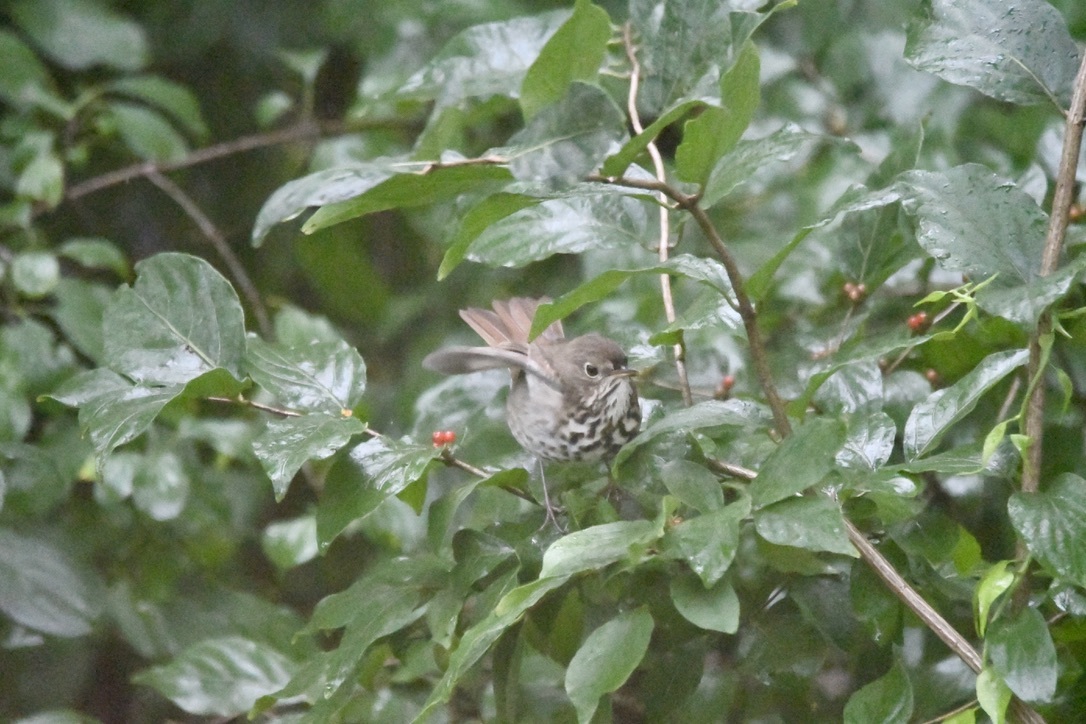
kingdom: Animalia
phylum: Chordata
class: Aves
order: Passeriformes
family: Turdidae
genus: Catharus
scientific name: Catharus guttatus
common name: Hermit thrush
